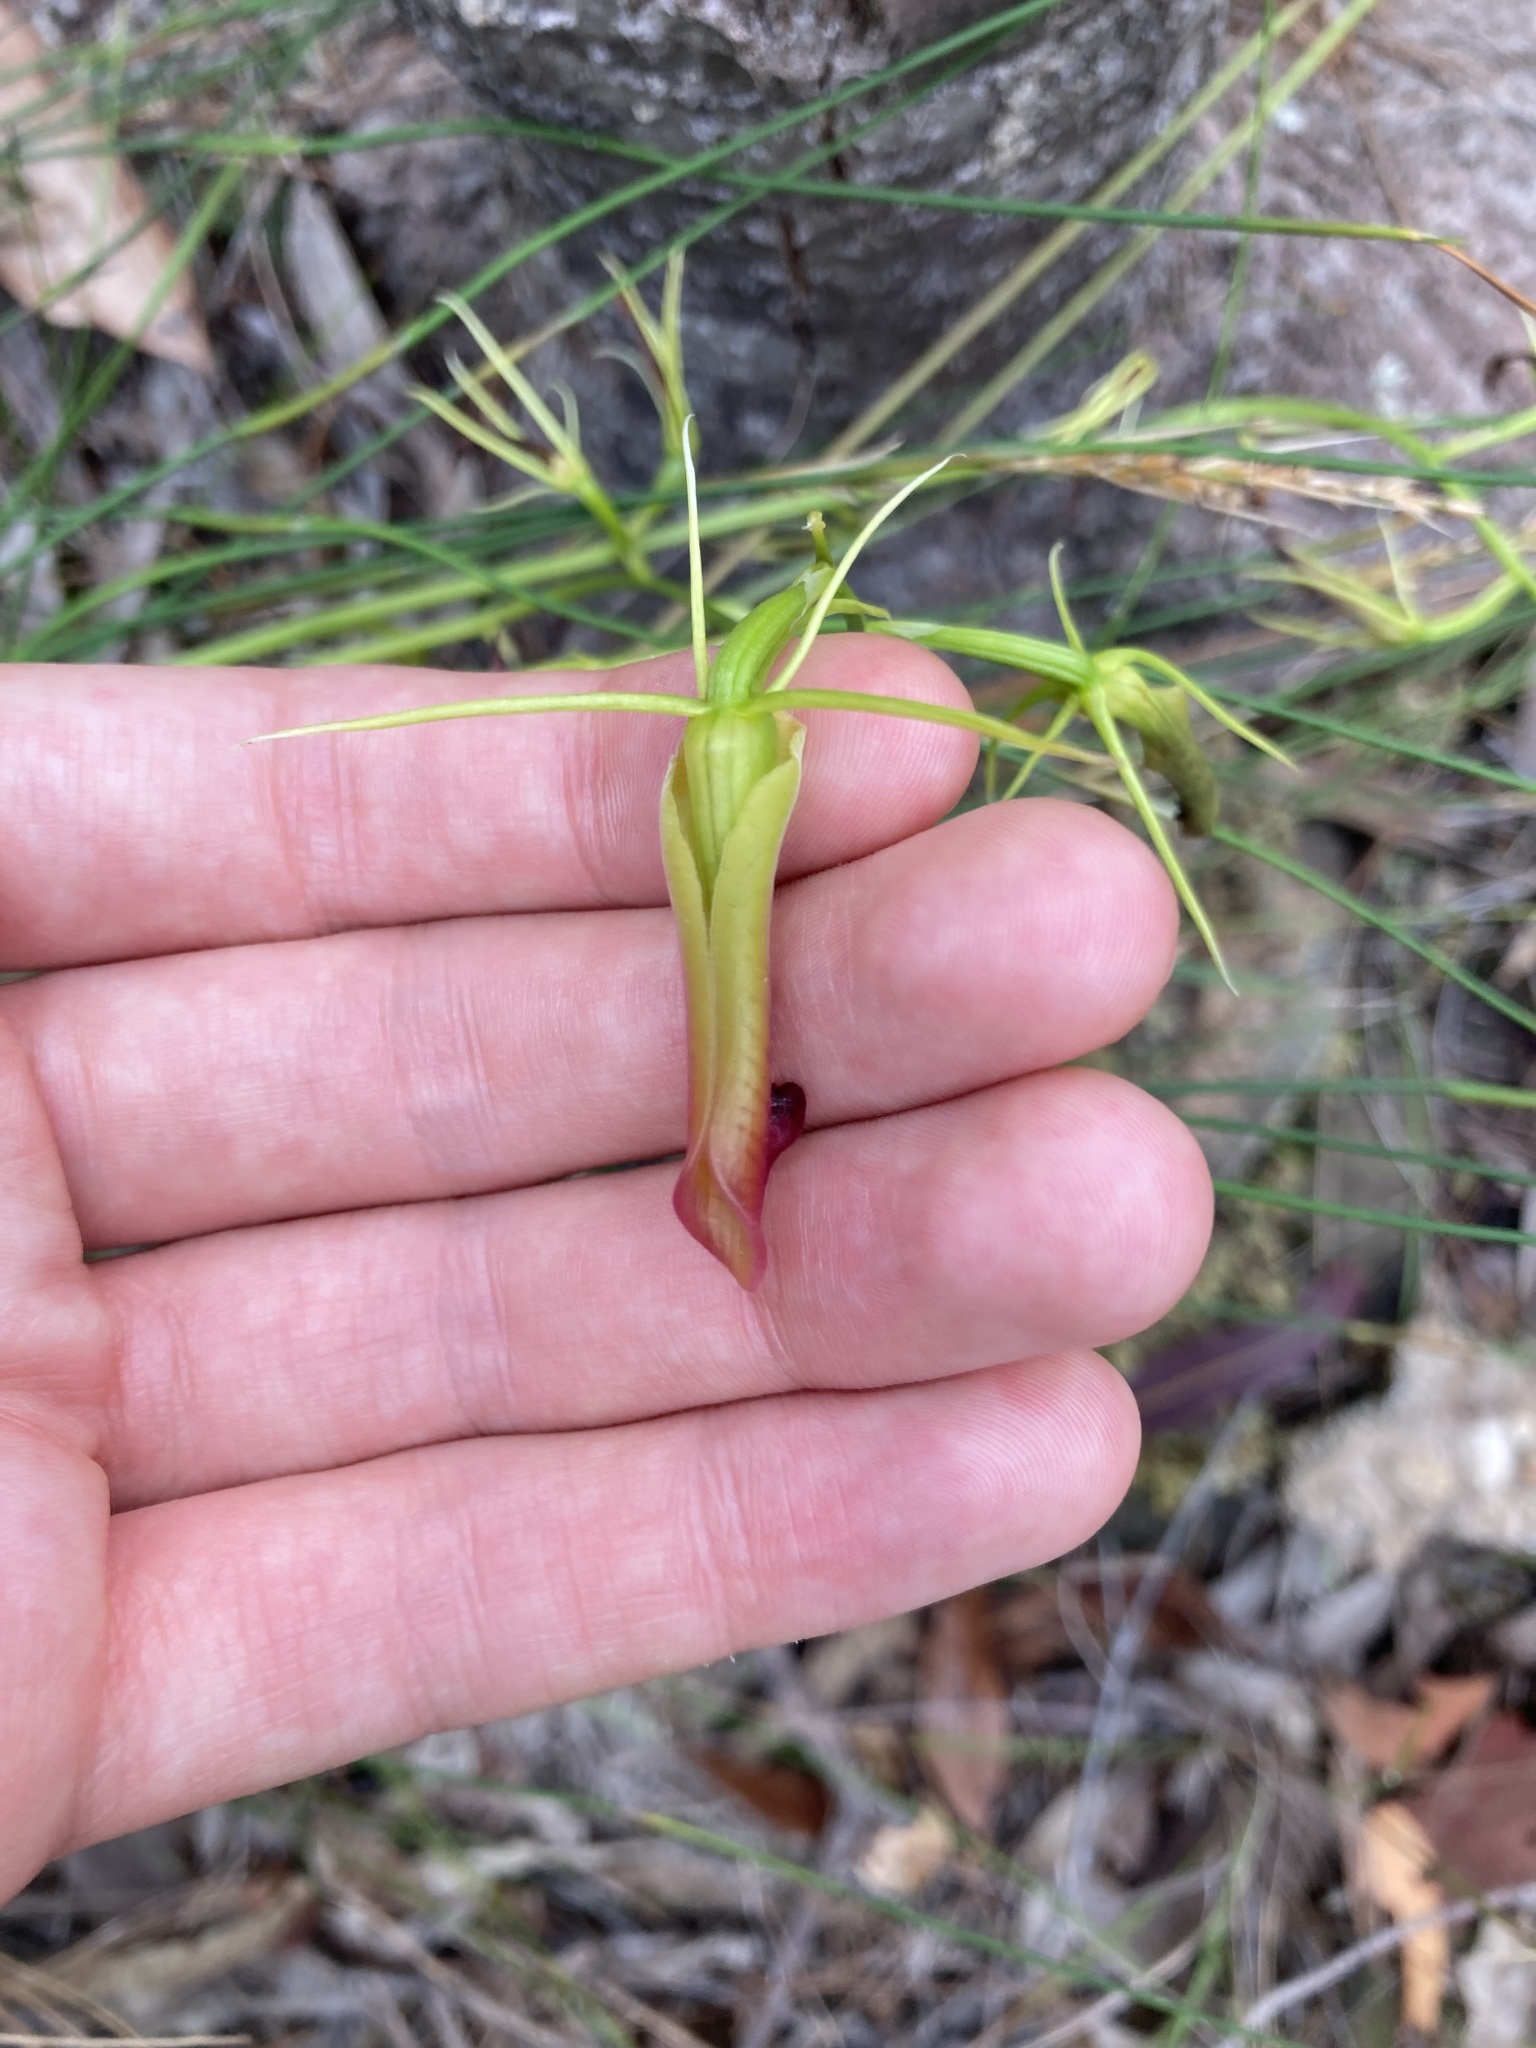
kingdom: Plantae
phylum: Tracheophyta
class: Liliopsida
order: Asparagales
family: Orchidaceae
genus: Cryptostylis
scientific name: Cryptostylis subulata
